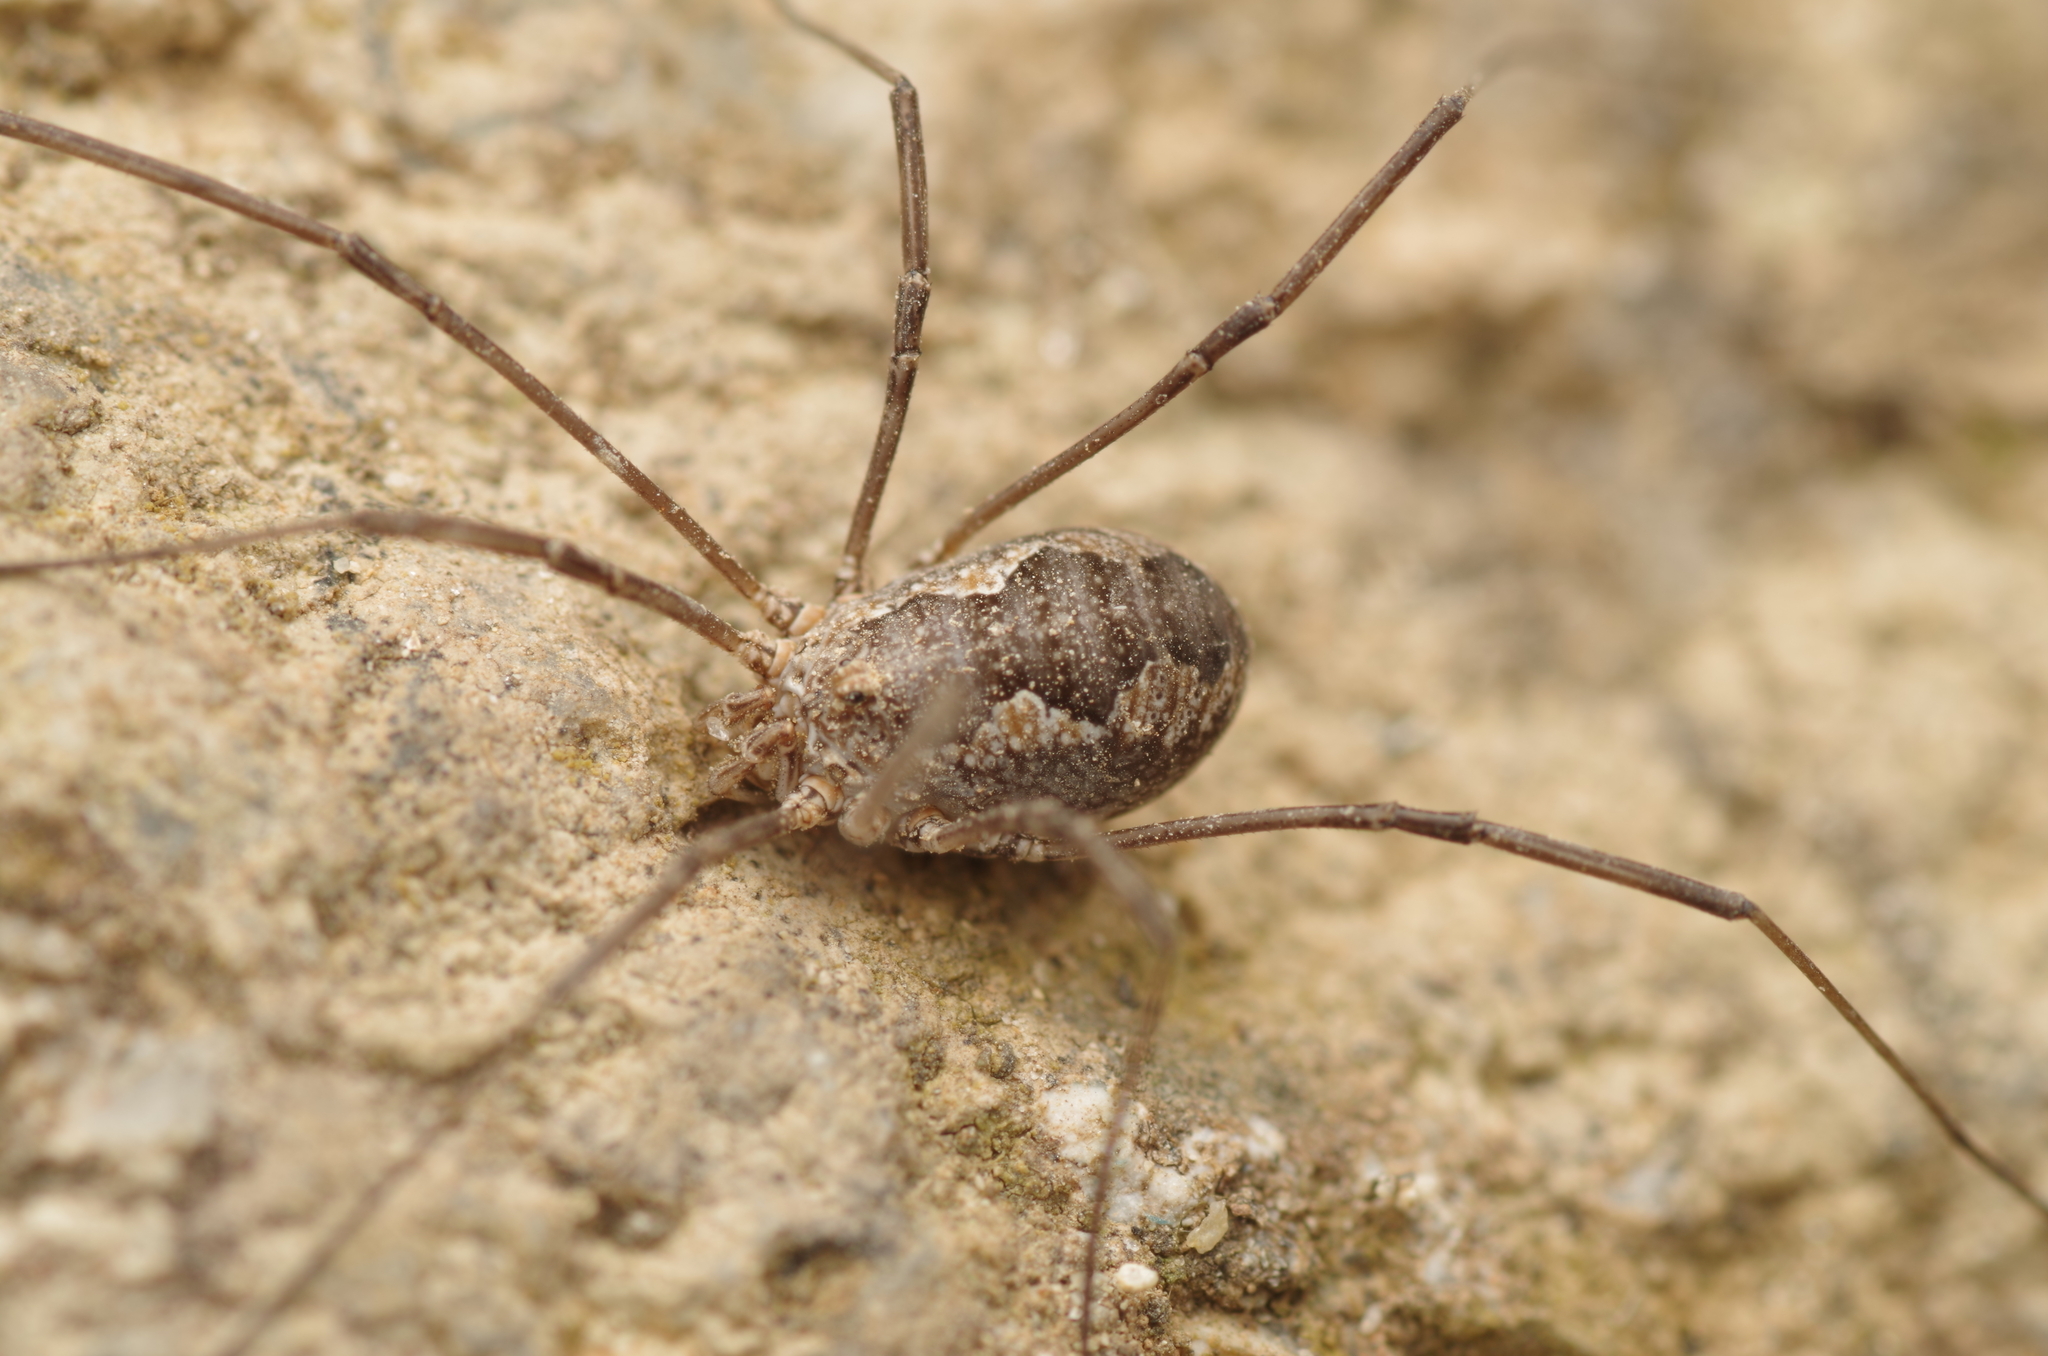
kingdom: Animalia
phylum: Arthropoda
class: Arachnida
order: Opiliones
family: Phalangiidae
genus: Phalangium
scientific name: Phalangium opilio
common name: Daddy longleg
